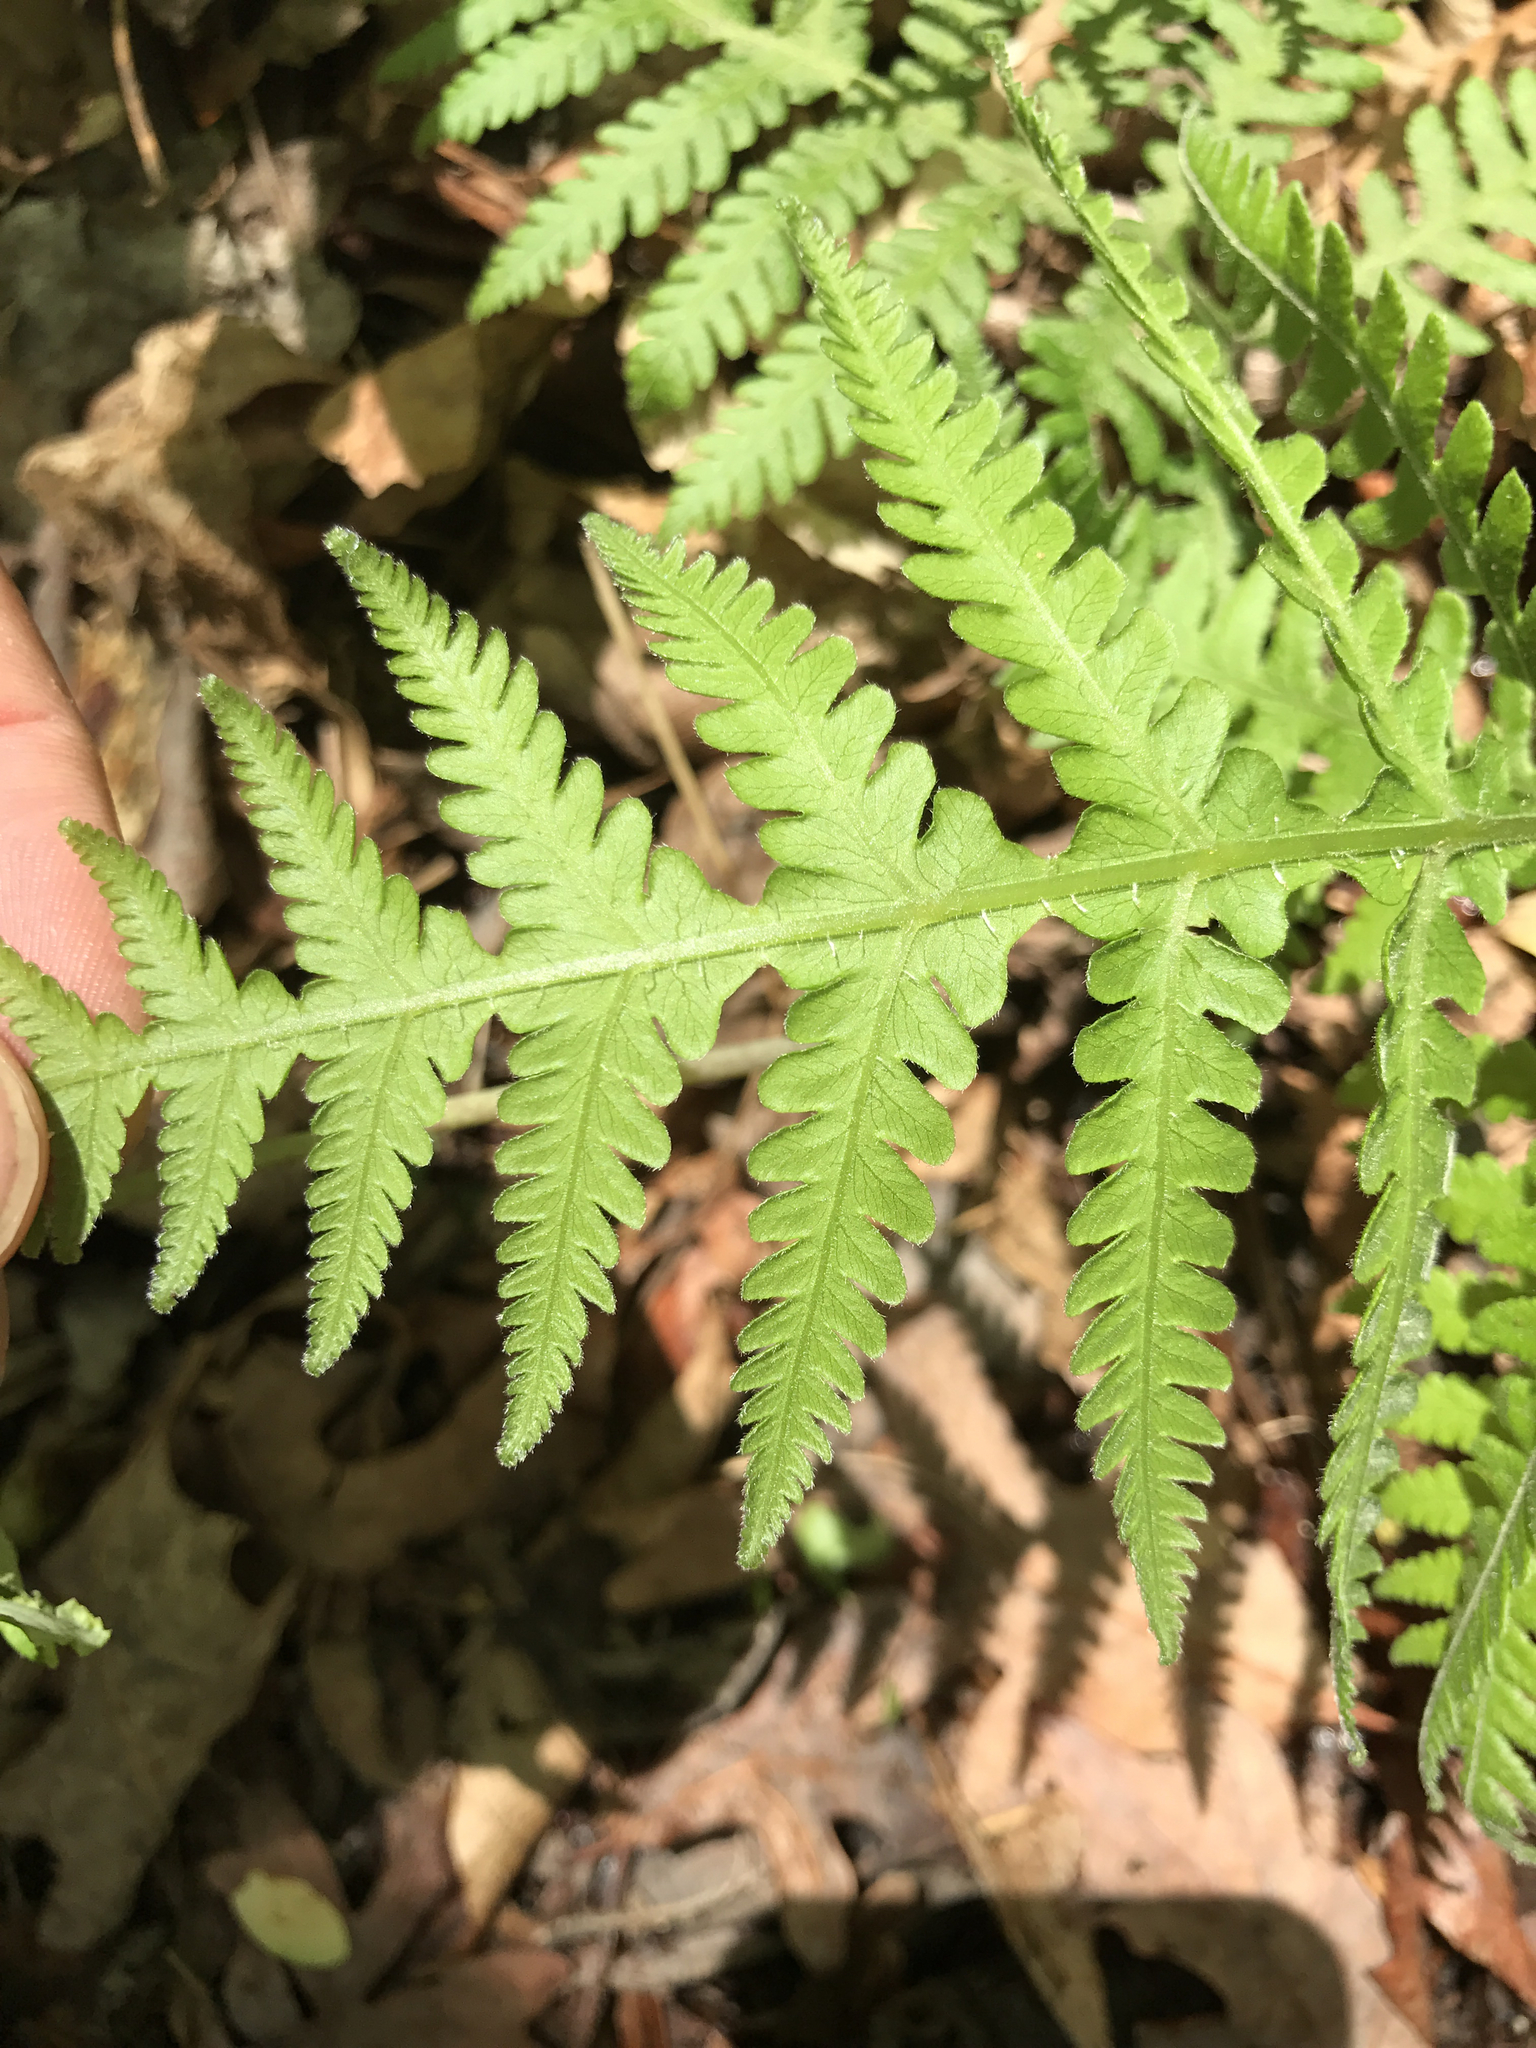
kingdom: Plantae
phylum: Tracheophyta
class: Polypodiopsida
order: Polypodiales
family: Thelypteridaceae
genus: Phegopteris
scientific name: Phegopteris hexagonoptera
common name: Broad beech fern
